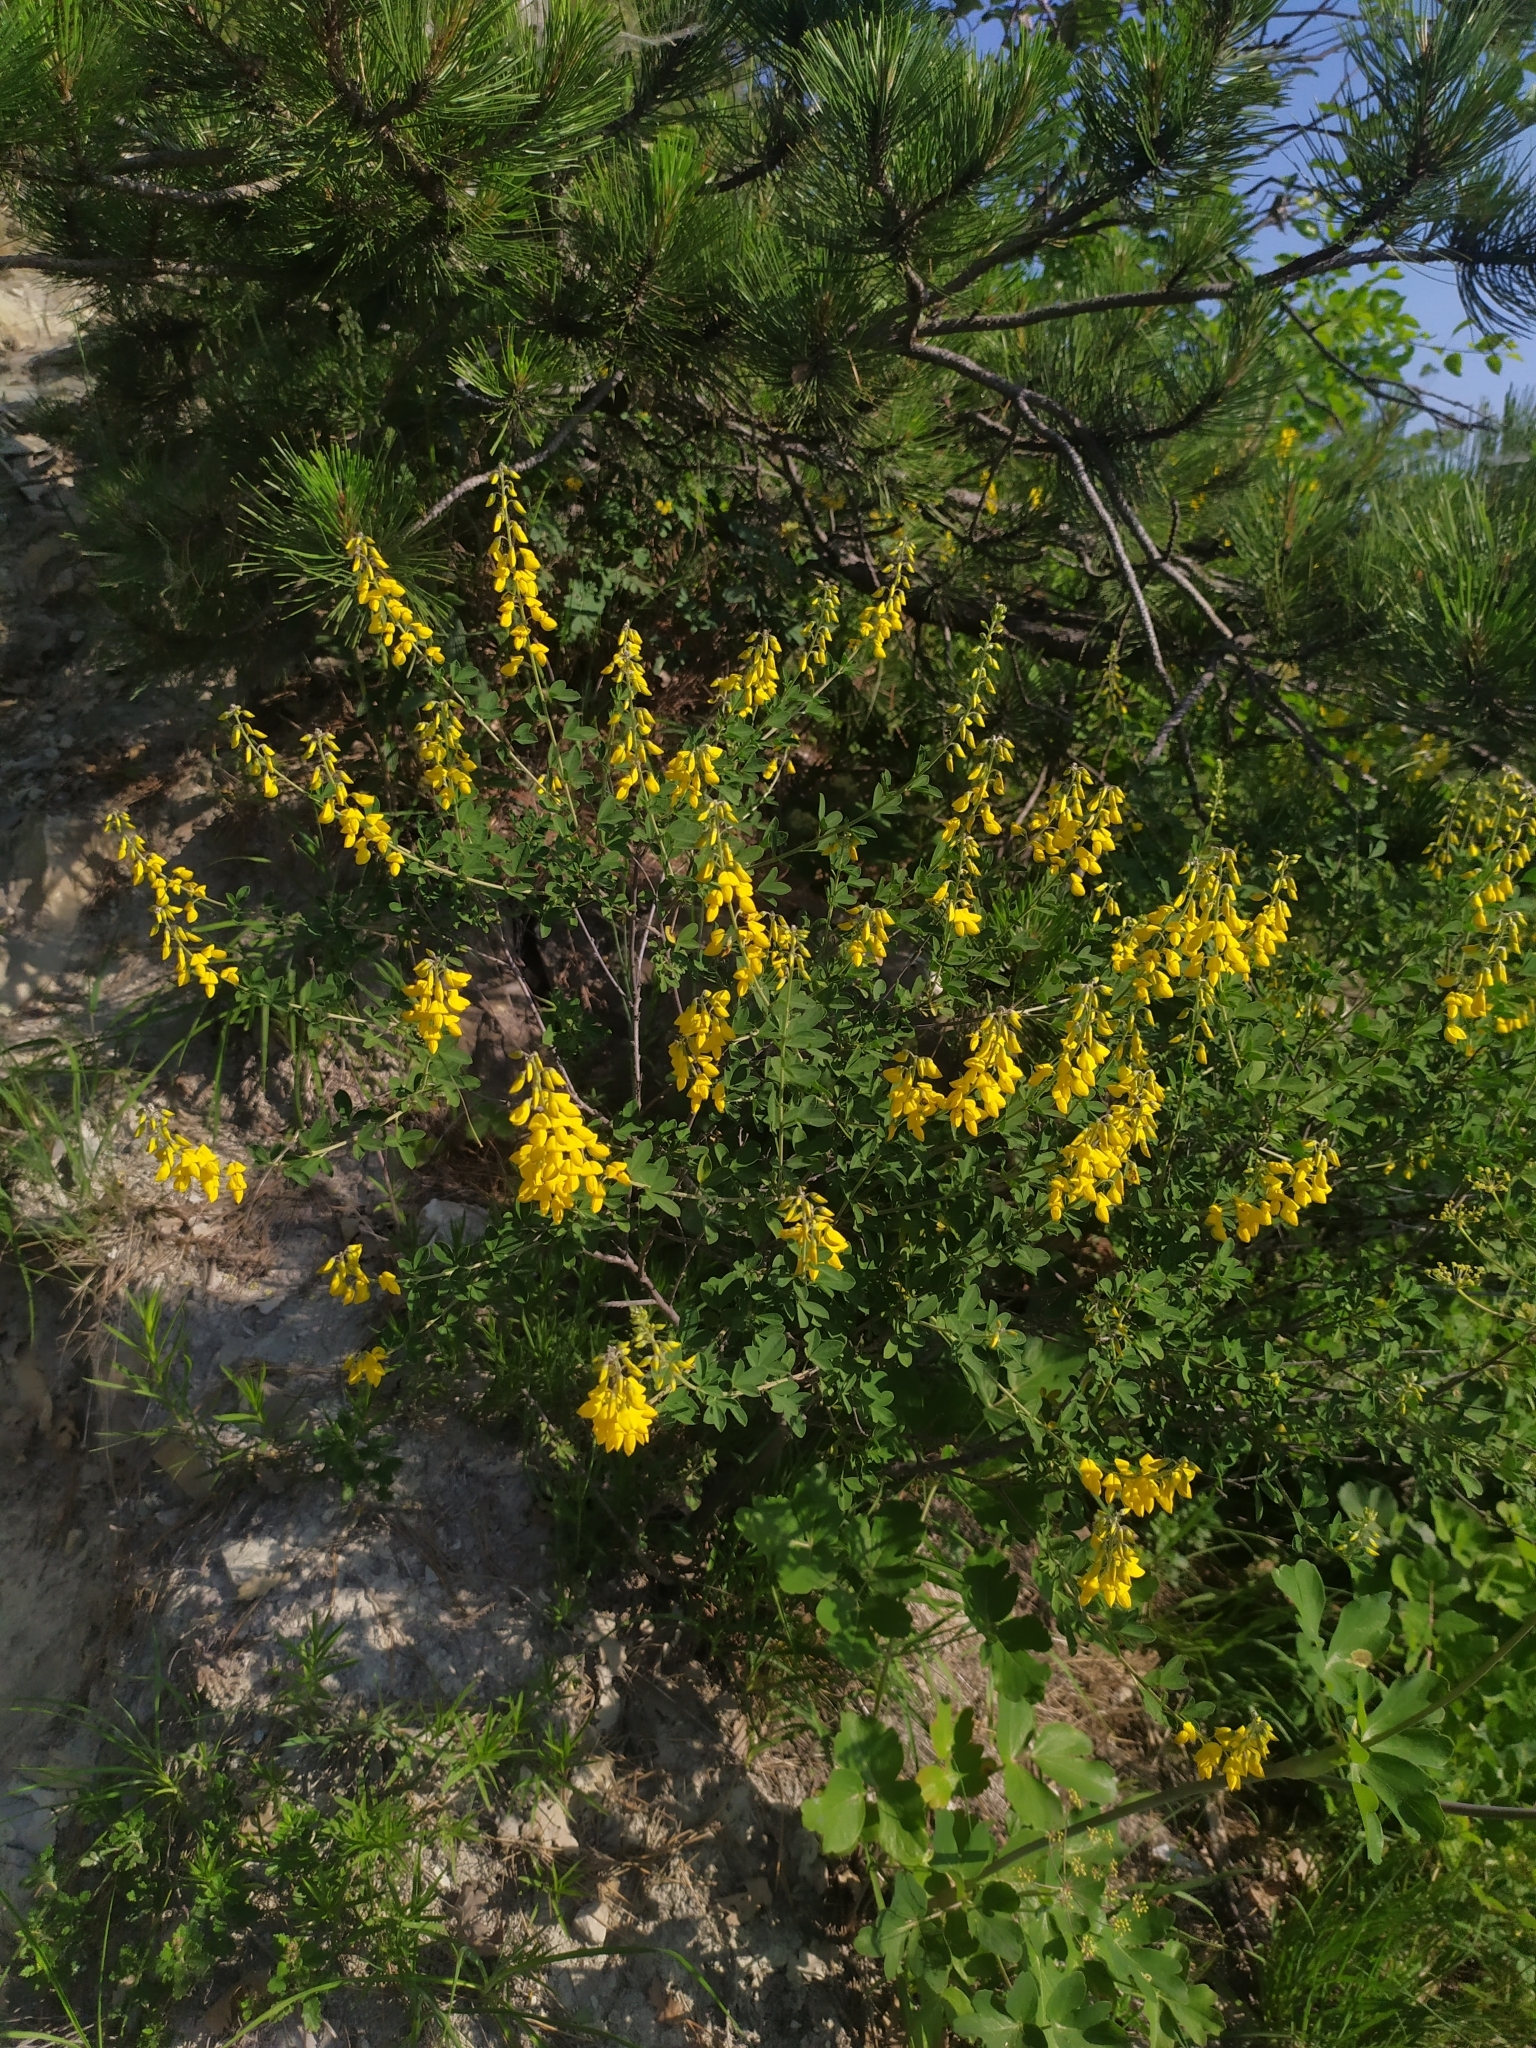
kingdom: Plantae
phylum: Tracheophyta
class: Magnoliopsida
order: Fabales
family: Fabaceae
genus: Cytisus
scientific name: Cytisus nigricans
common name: Black broom
